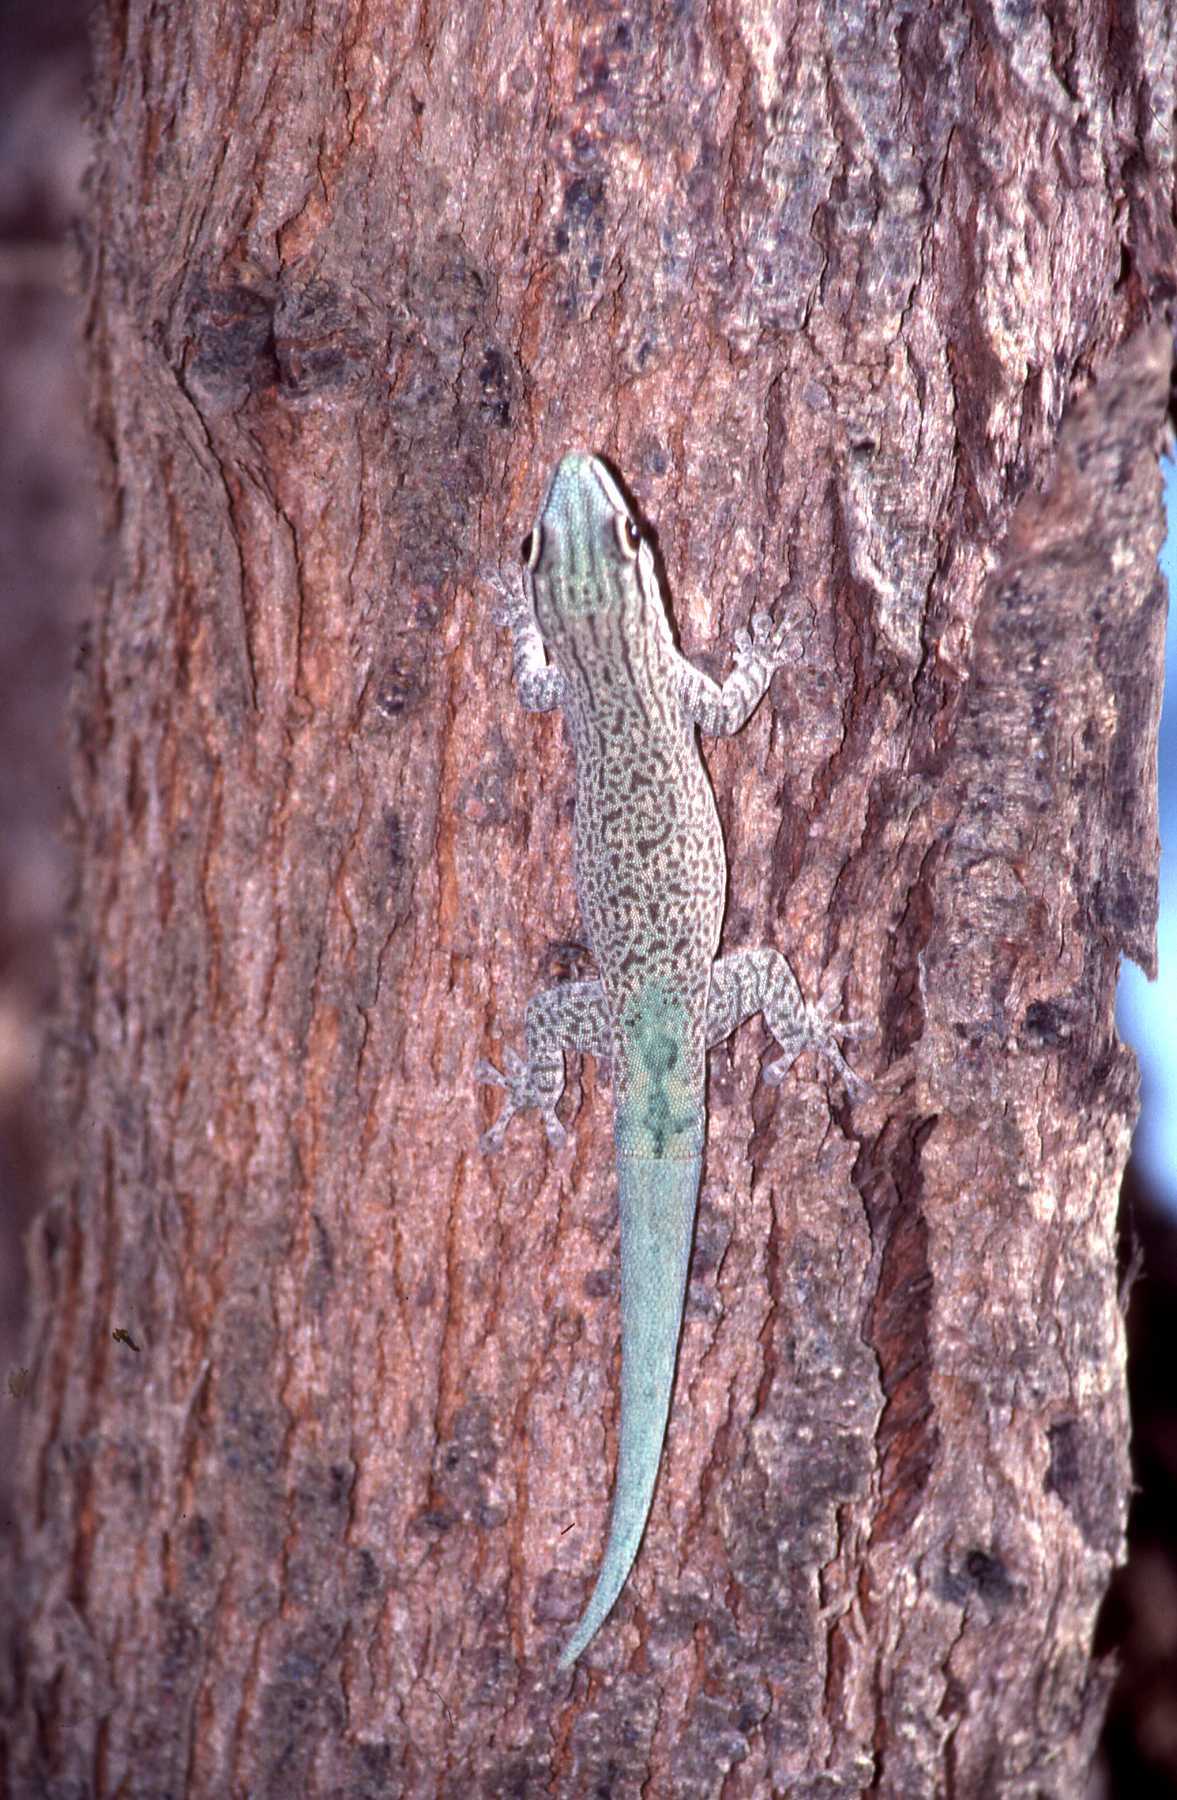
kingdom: Animalia
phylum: Chordata
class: Squamata
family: Gekkonidae
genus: Phelsuma
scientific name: Phelsuma mutabilis
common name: Thick tail gecko
